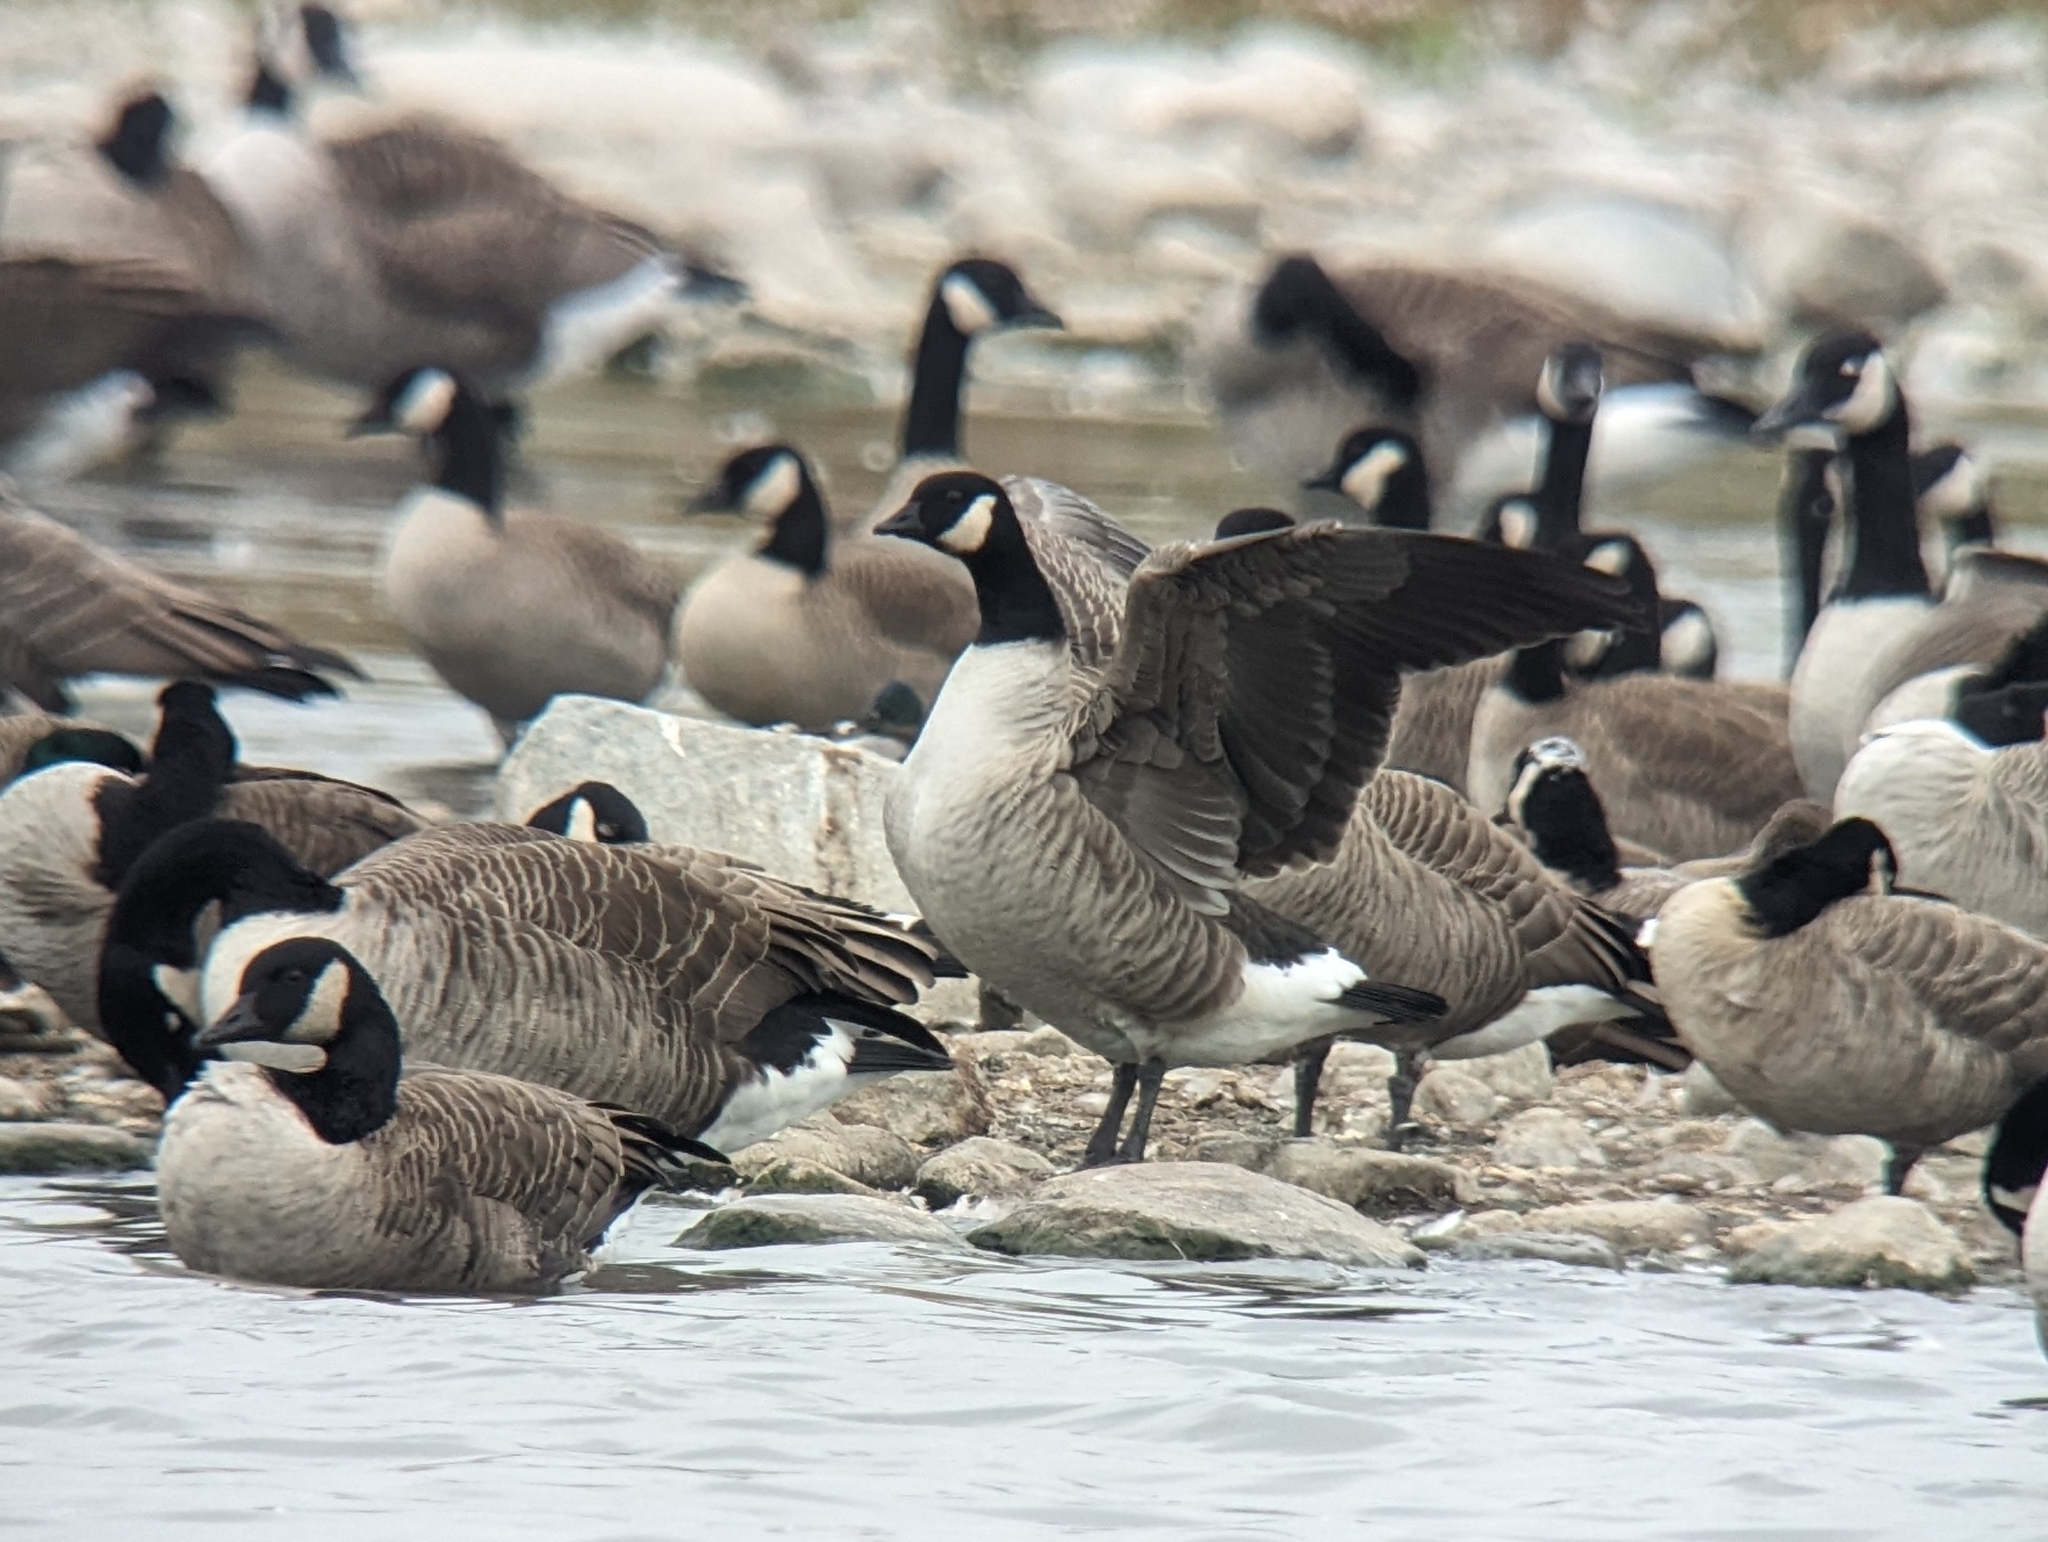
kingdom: Animalia
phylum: Chordata
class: Aves
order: Anseriformes
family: Anatidae
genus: Branta
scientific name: Branta hutchinsii
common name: Cackling goose
